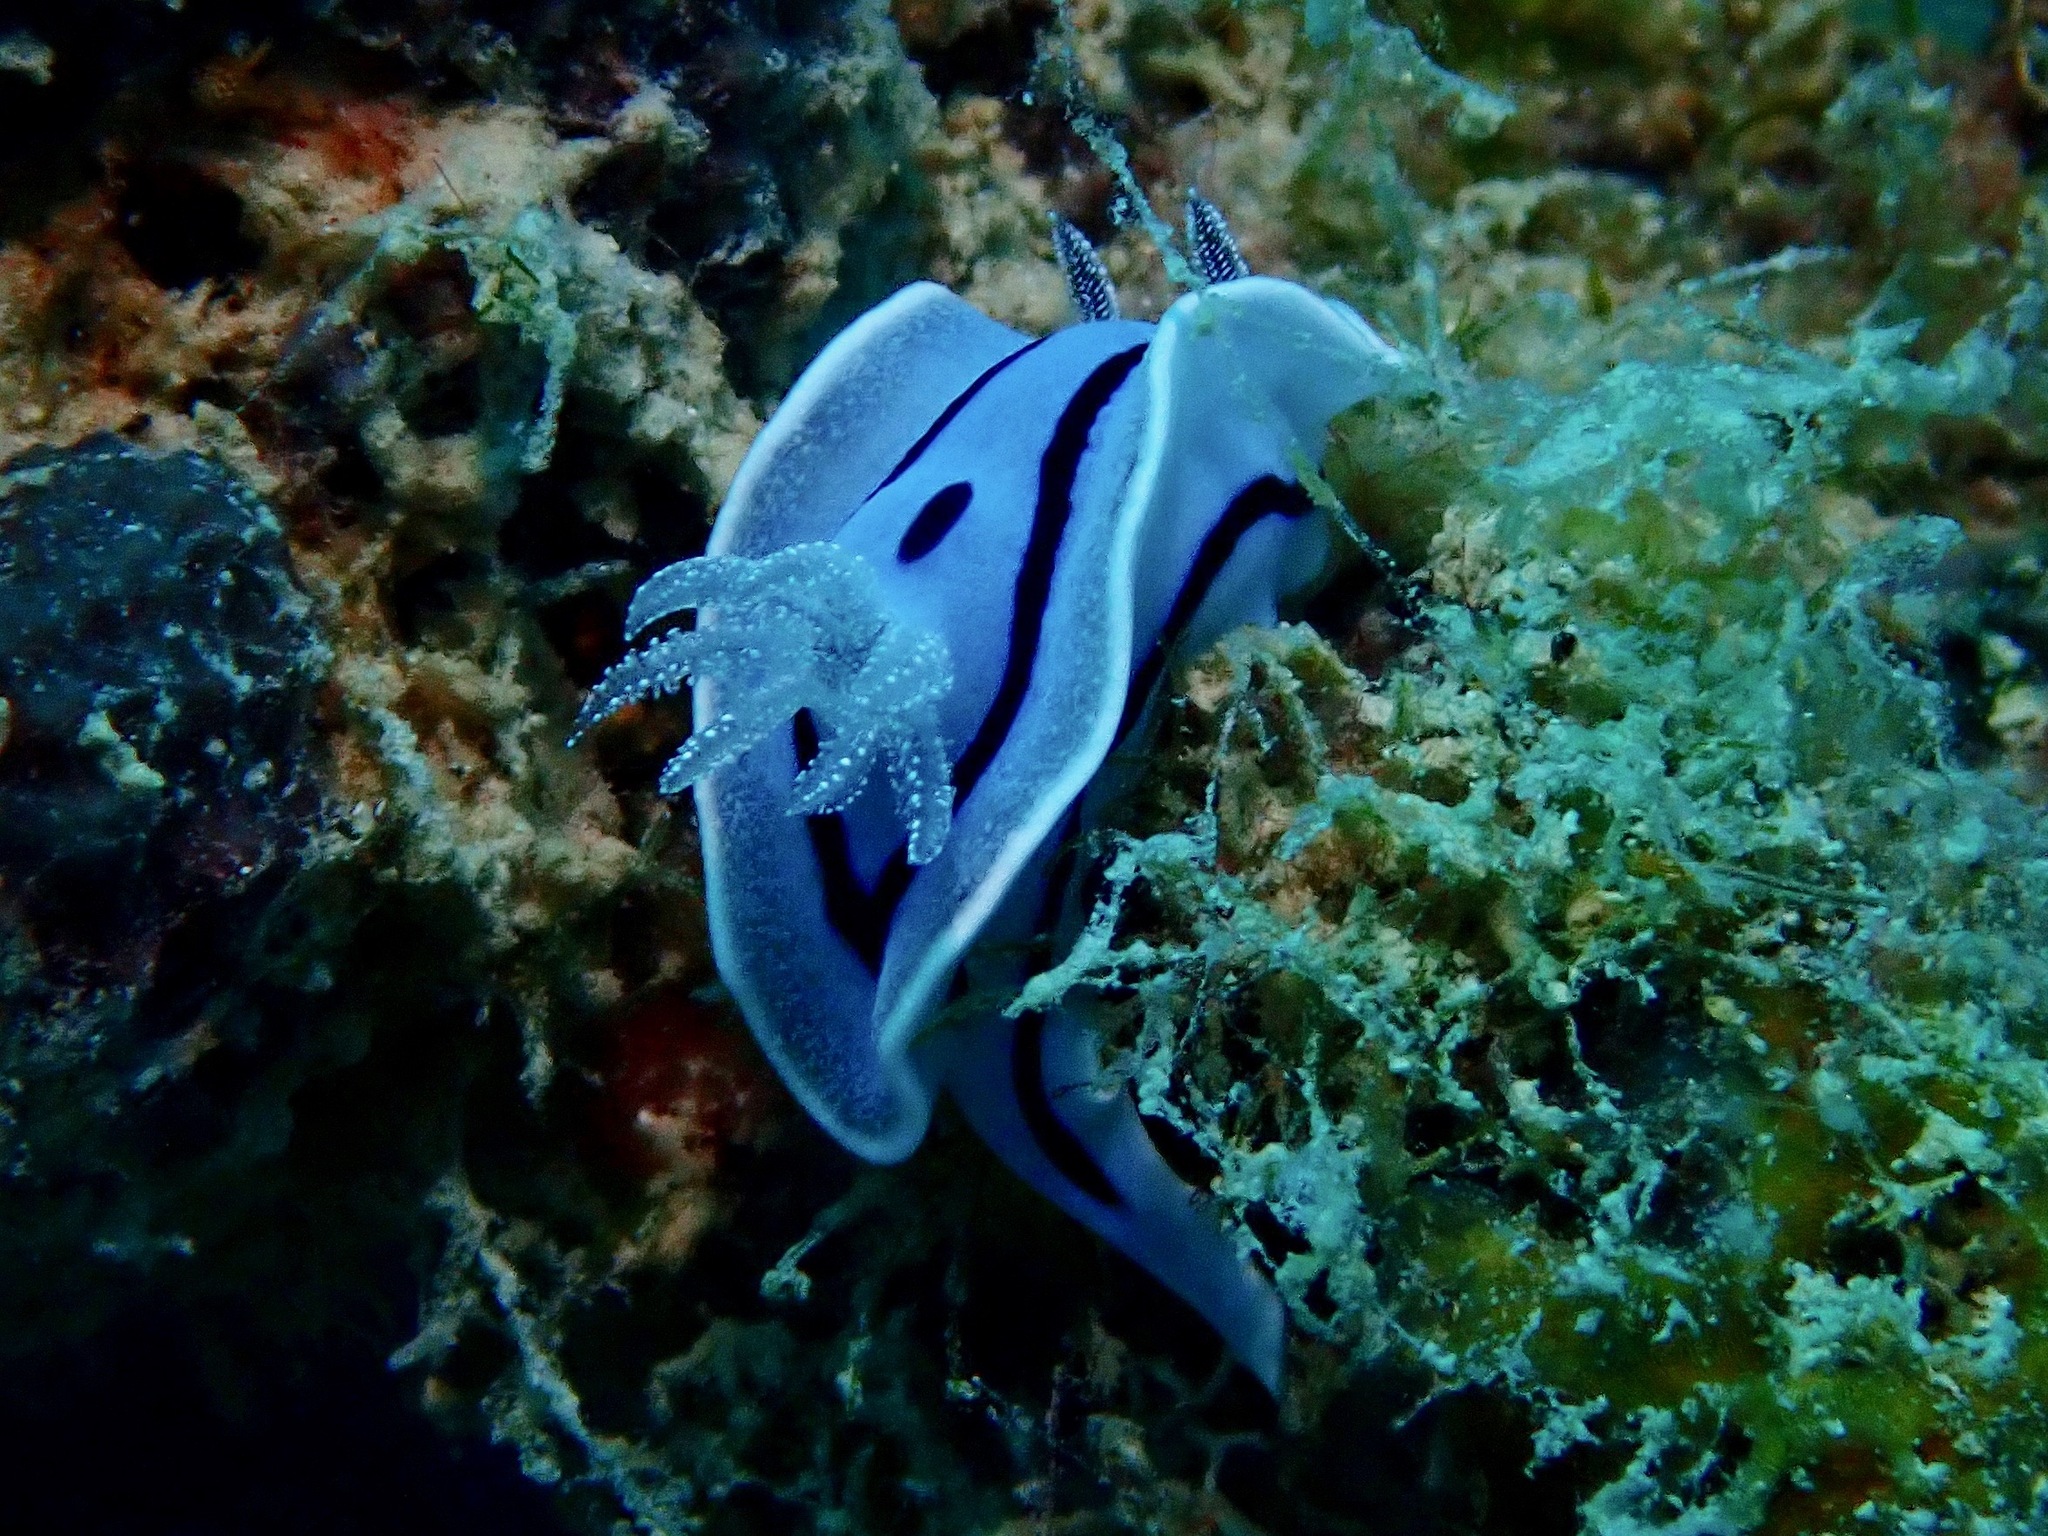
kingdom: Animalia
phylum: Mollusca
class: Gastropoda
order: Nudibranchia
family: Chromodorididae
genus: Chromodoris
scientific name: Chromodoris willani
